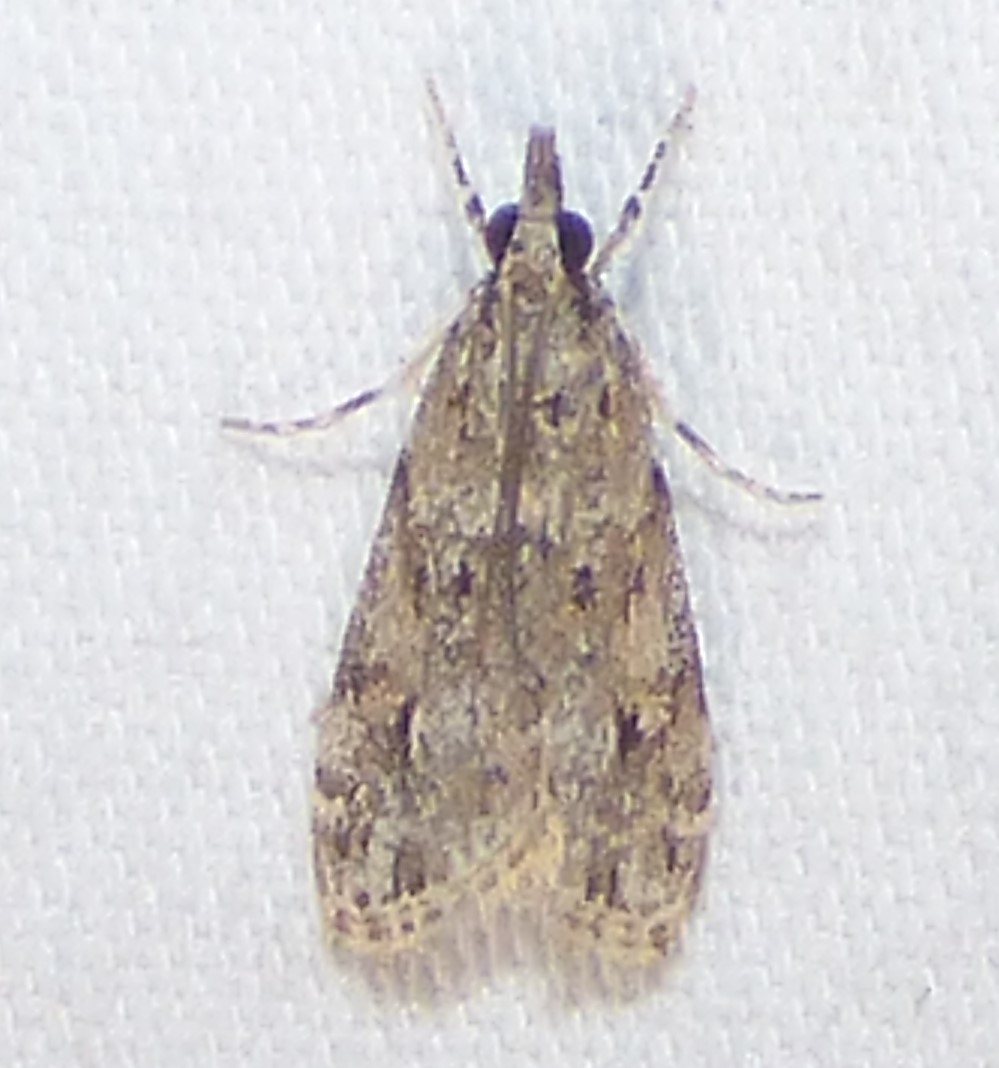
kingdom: Animalia
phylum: Arthropoda
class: Insecta
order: Lepidoptera
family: Crambidae
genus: Eudonia
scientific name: Eudonia heterosalis
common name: Mcdunnough's eudonia
